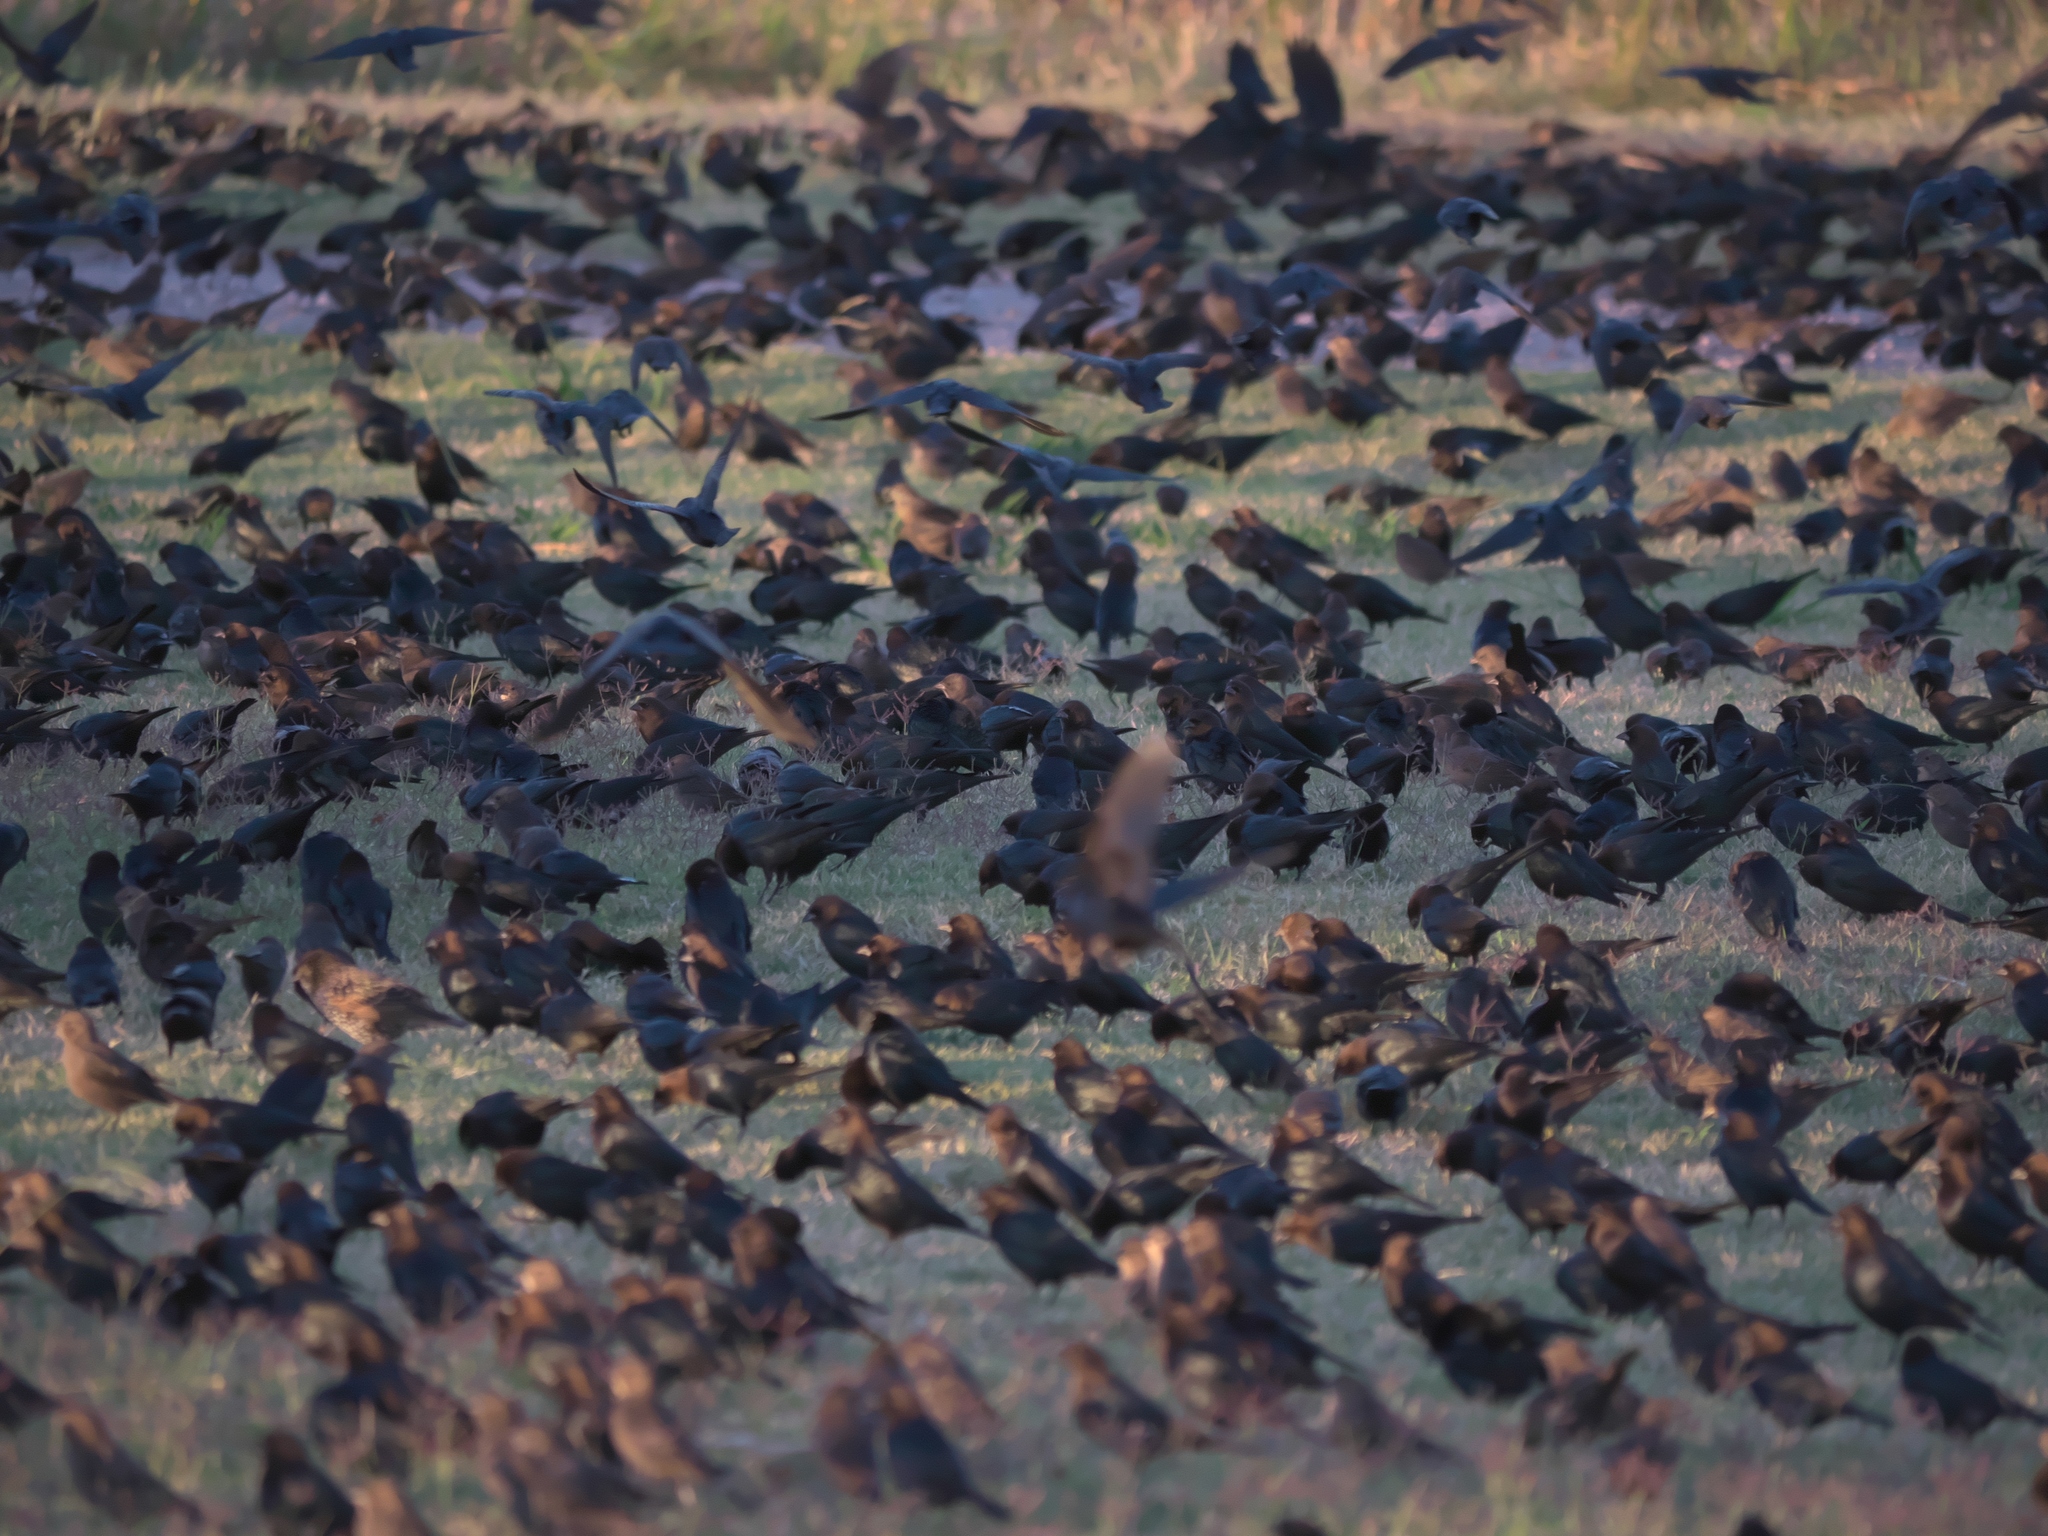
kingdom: Animalia
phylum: Chordata
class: Aves
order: Passeriformes
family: Icteridae
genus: Molothrus
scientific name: Molothrus ater
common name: Brown-headed cowbird
